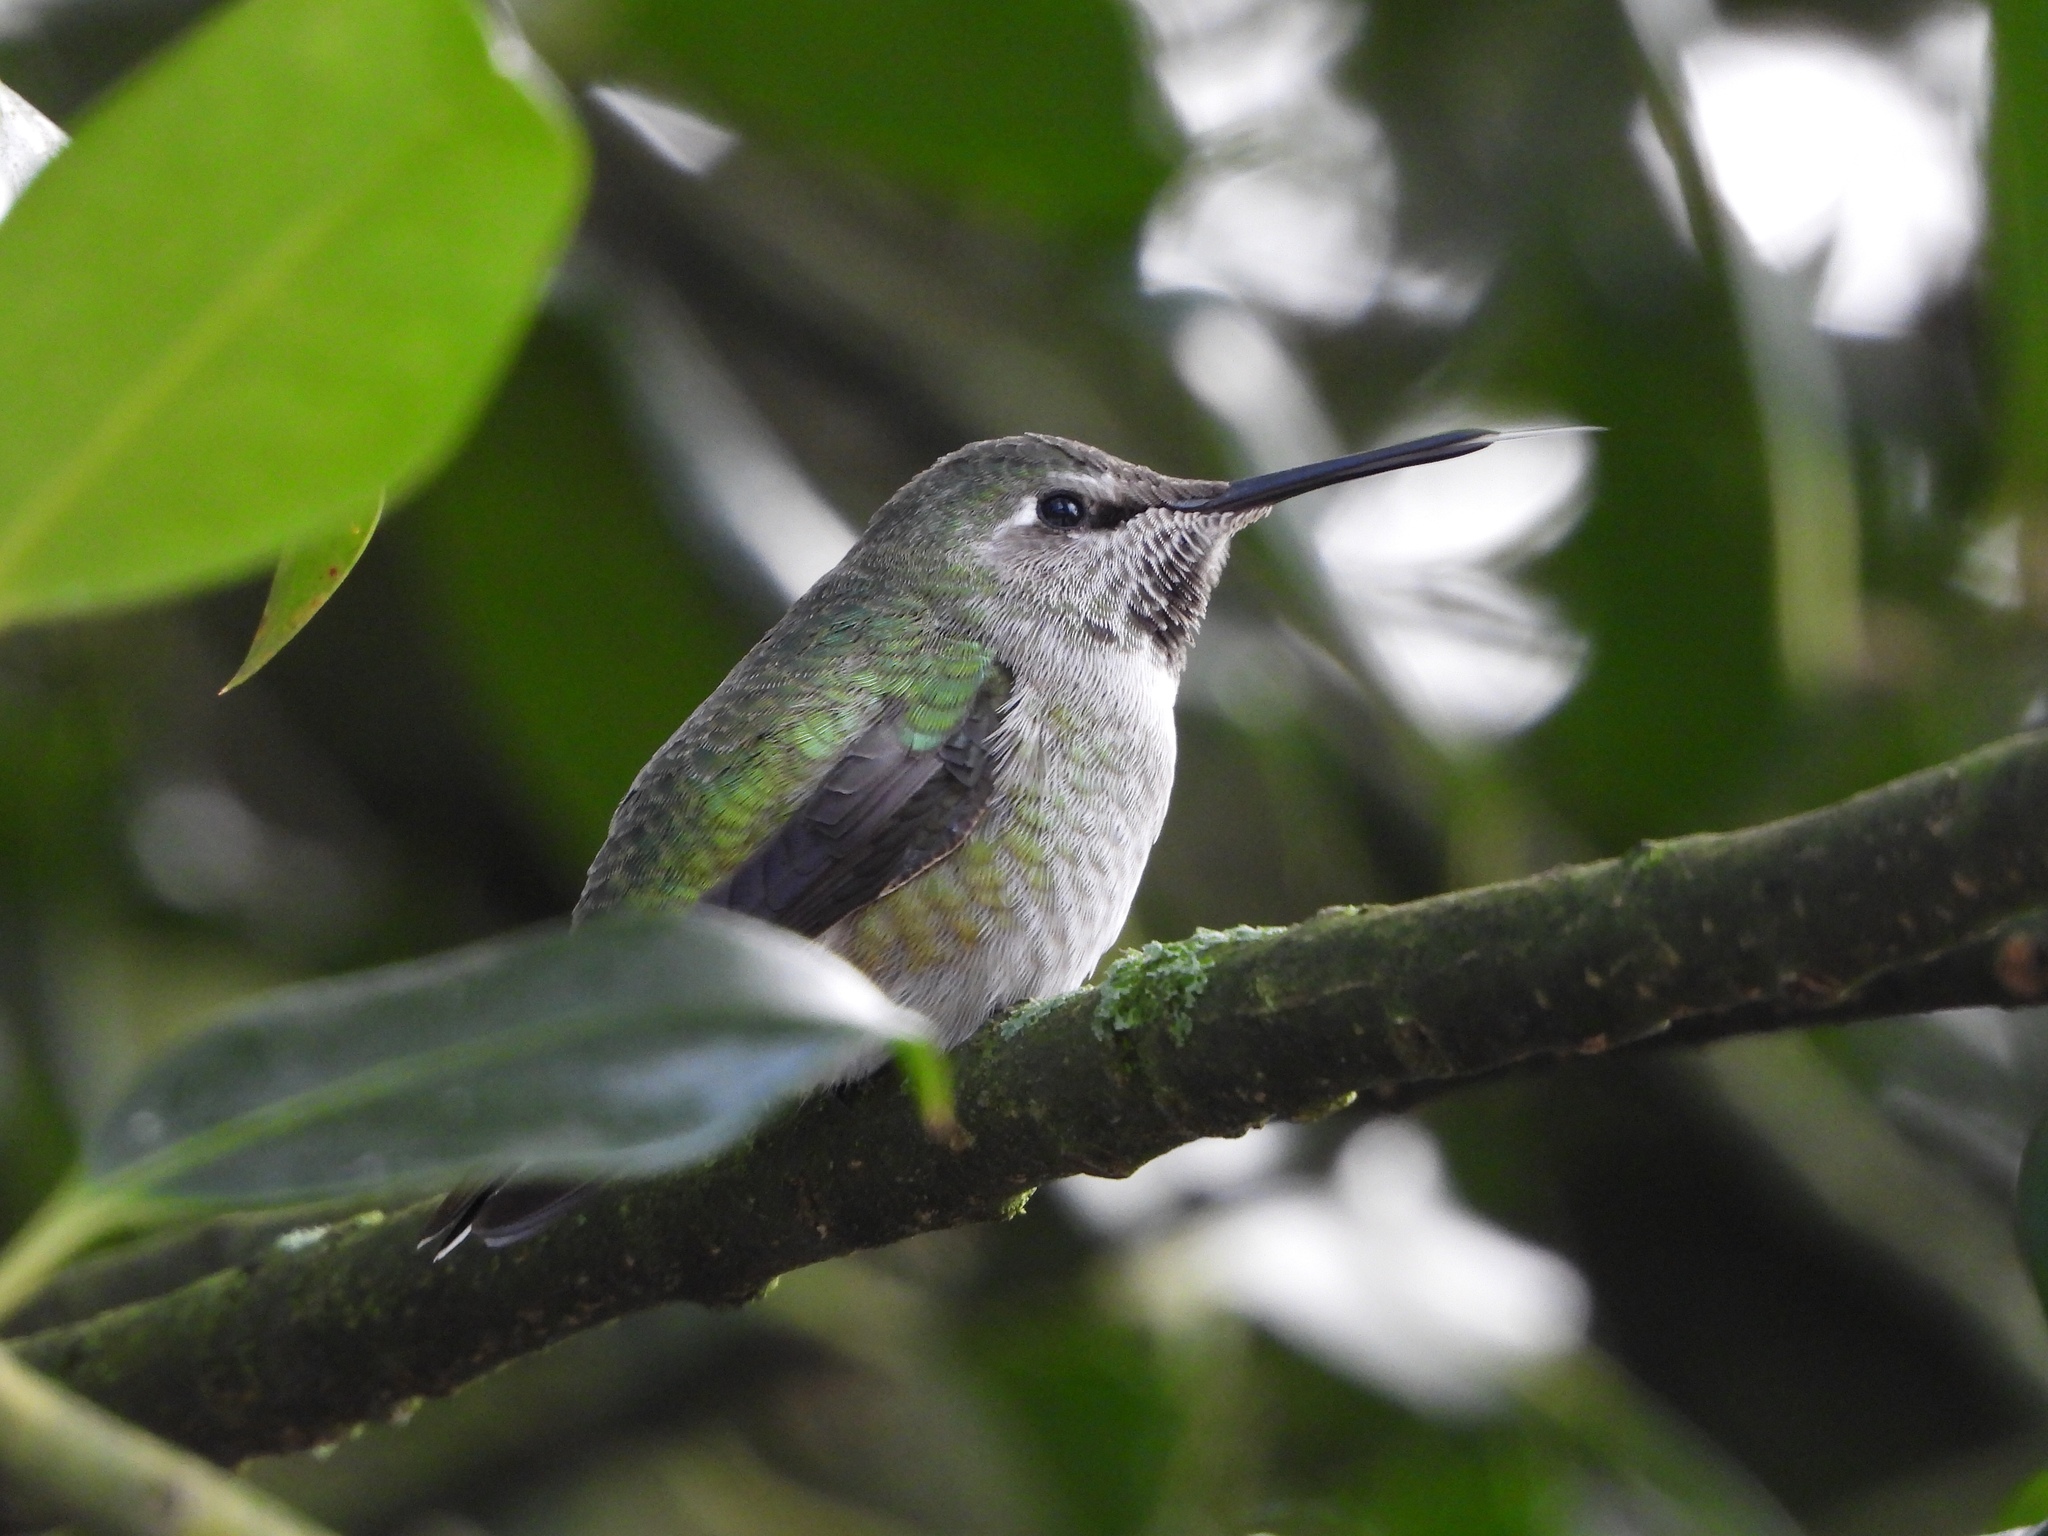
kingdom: Animalia
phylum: Chordata
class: Aves
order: Apodiformes
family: Trochilidae
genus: Calypte
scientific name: Calypte anna
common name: Anna's hummingbird
